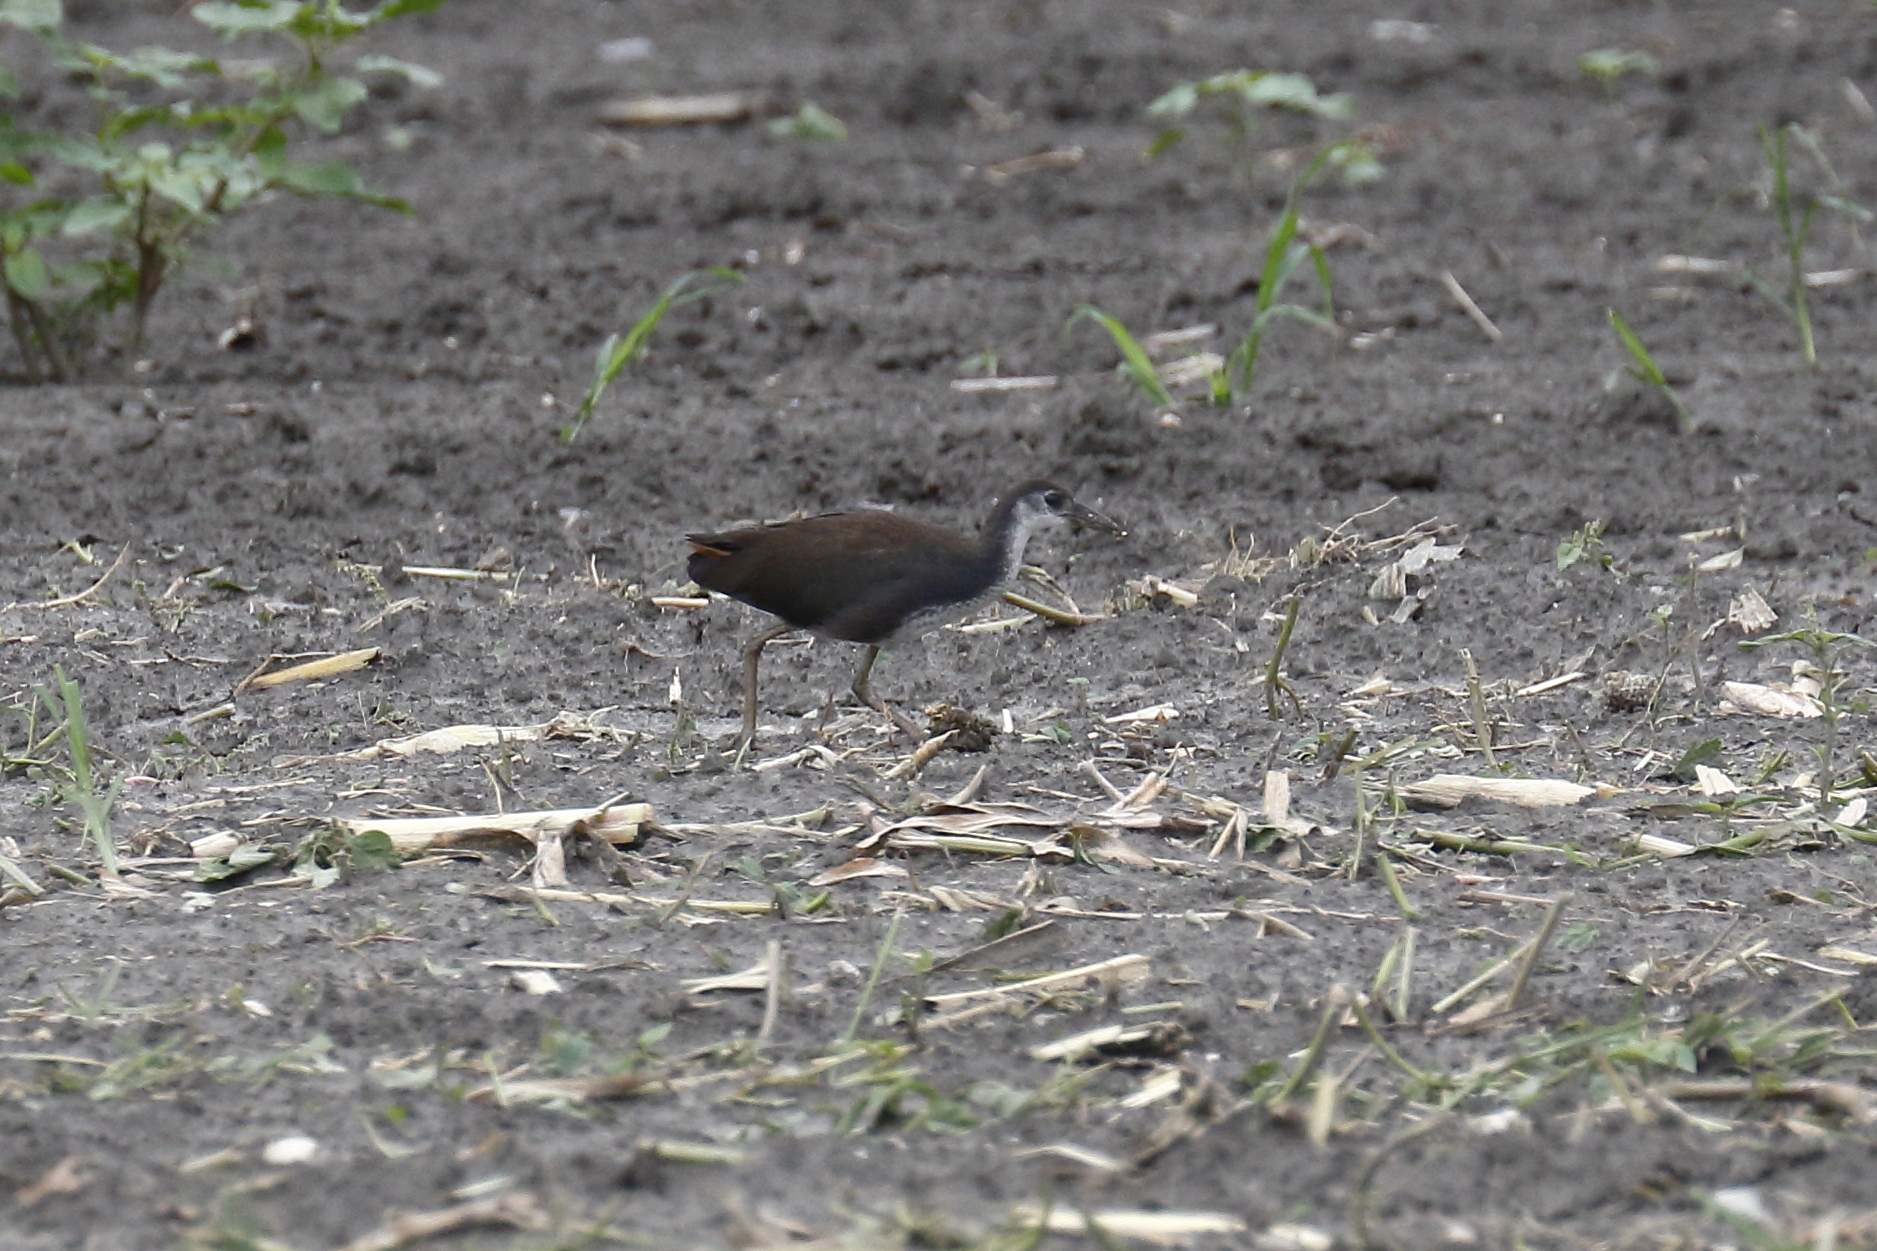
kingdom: Animalia
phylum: Chordata
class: Aves
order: Gruiformes
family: Rallidae
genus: Amaurornis
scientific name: Amaurornis phoenicurus
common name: White-breasted waterhen
